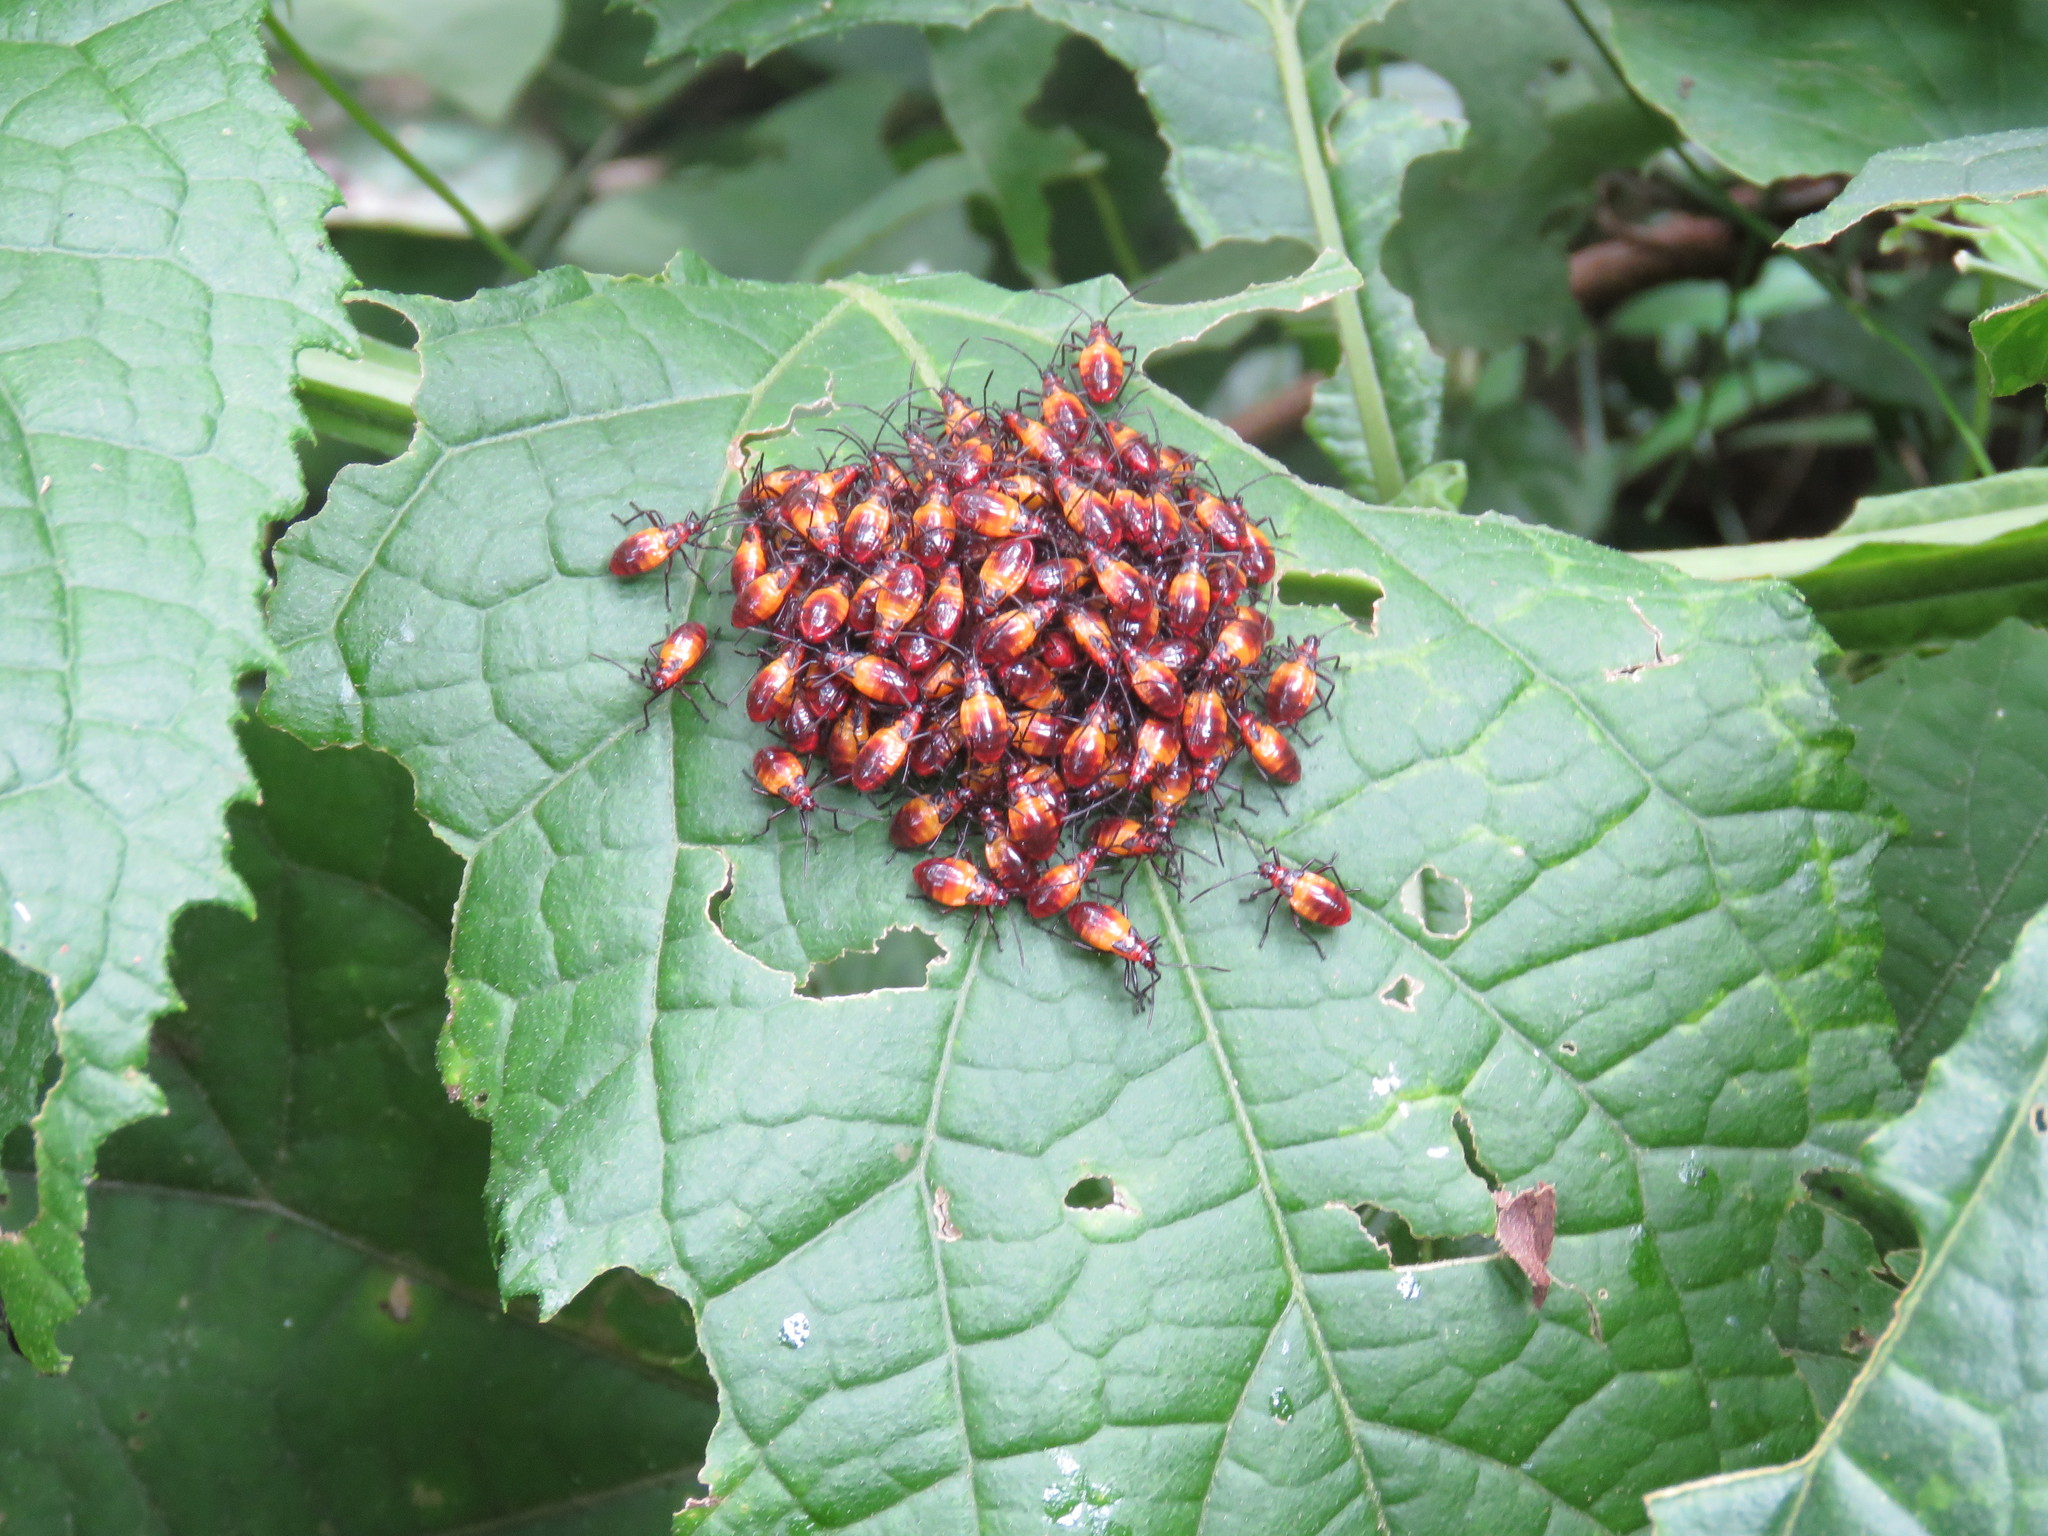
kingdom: Animalia
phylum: Arthropoda
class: Insecta
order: Hemiptera
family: Lygaeidae
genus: Oncopeltus
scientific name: Oncopeltus guttaloides
